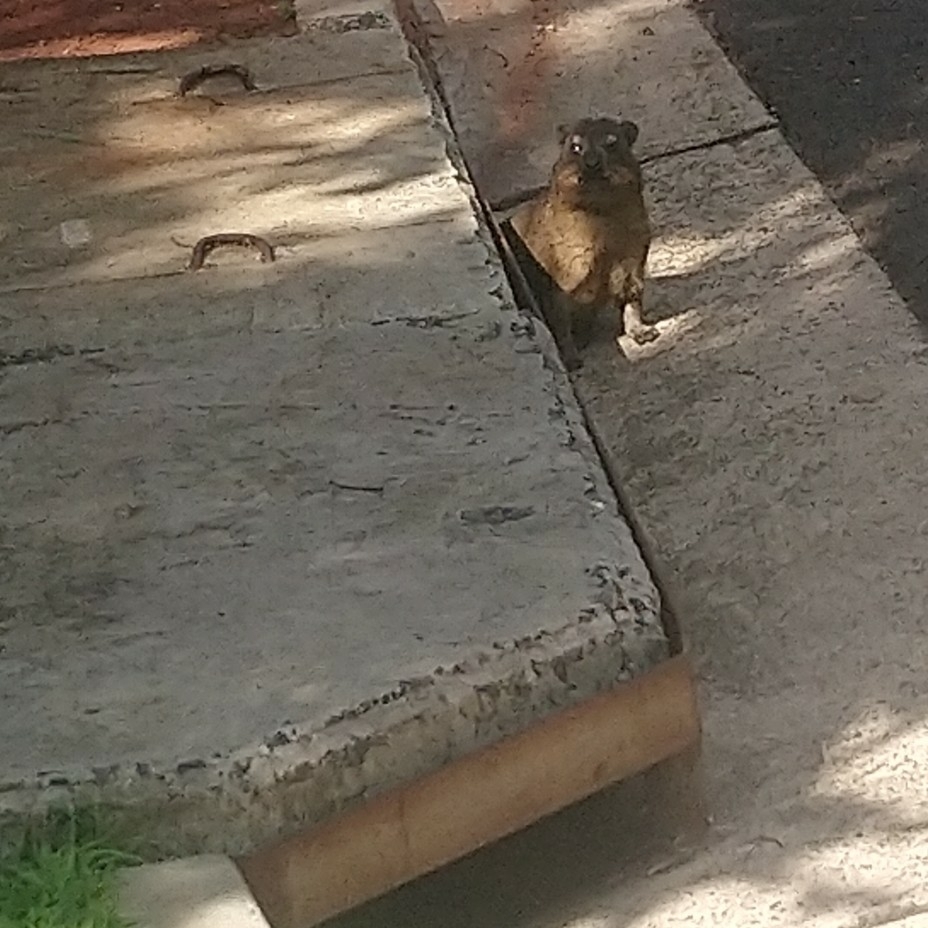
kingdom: Animalia
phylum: Chordata
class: Mammalia
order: Hyracoidea
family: Procaviidae
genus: Procavia
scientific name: Procavia capensis
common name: Rock hyrax
